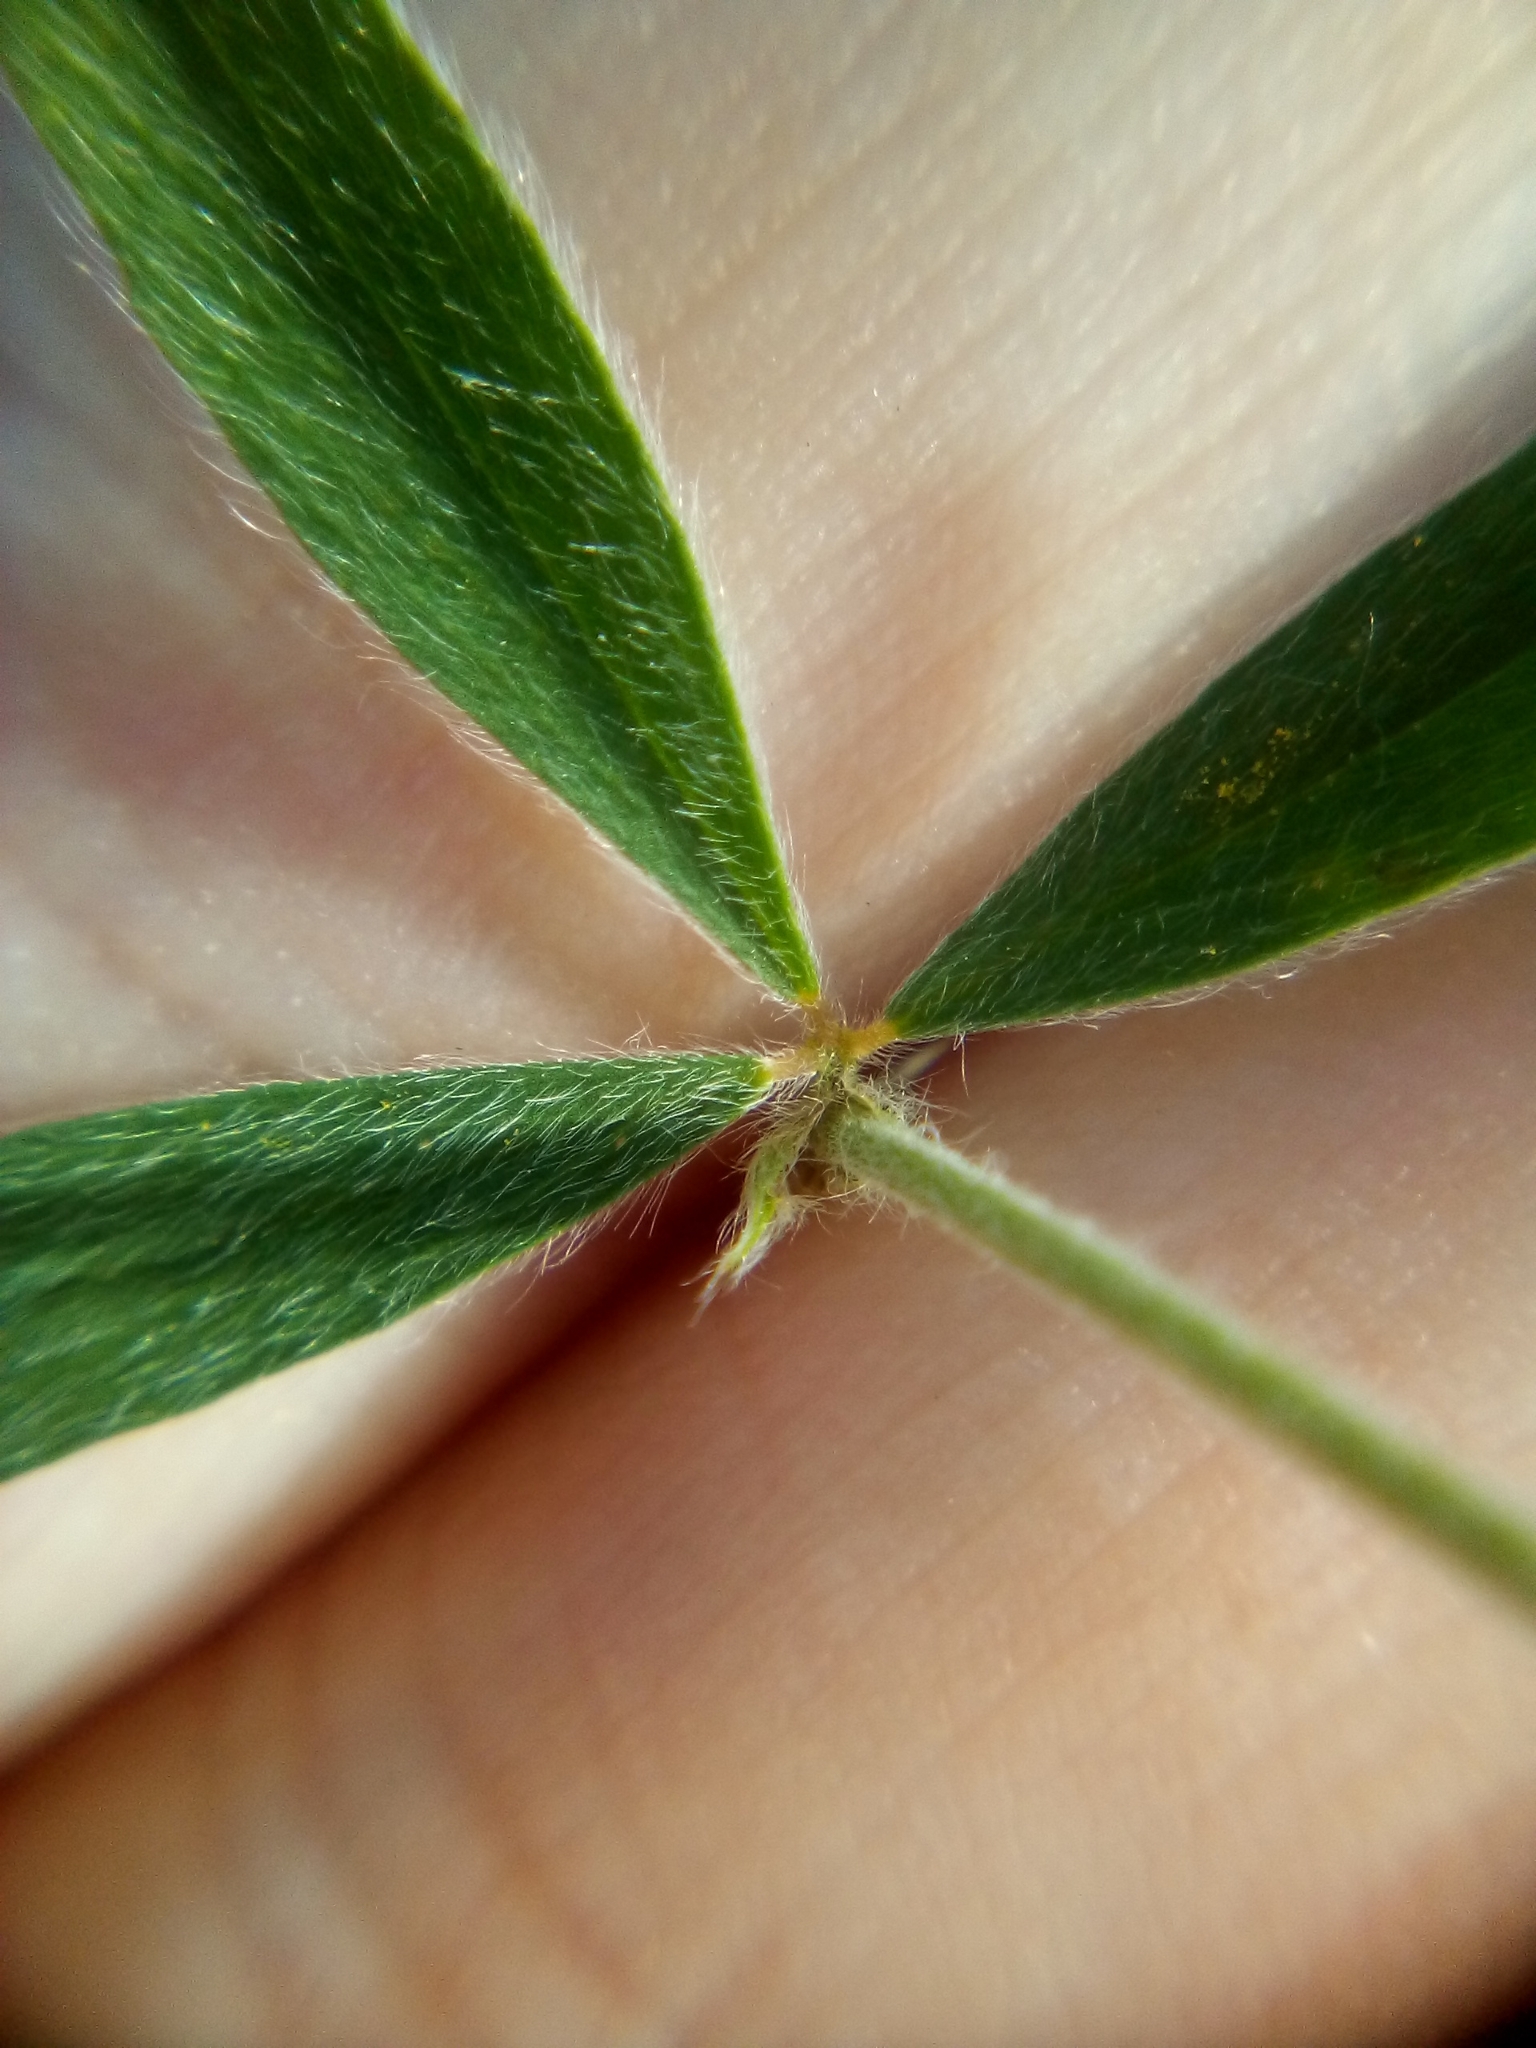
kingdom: Plantae
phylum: Tracheophyta
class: Magnoliopsida
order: Fabales
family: Fabaceae
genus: Trifolium
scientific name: Trifolium arvense
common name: Hare's-foot clover
